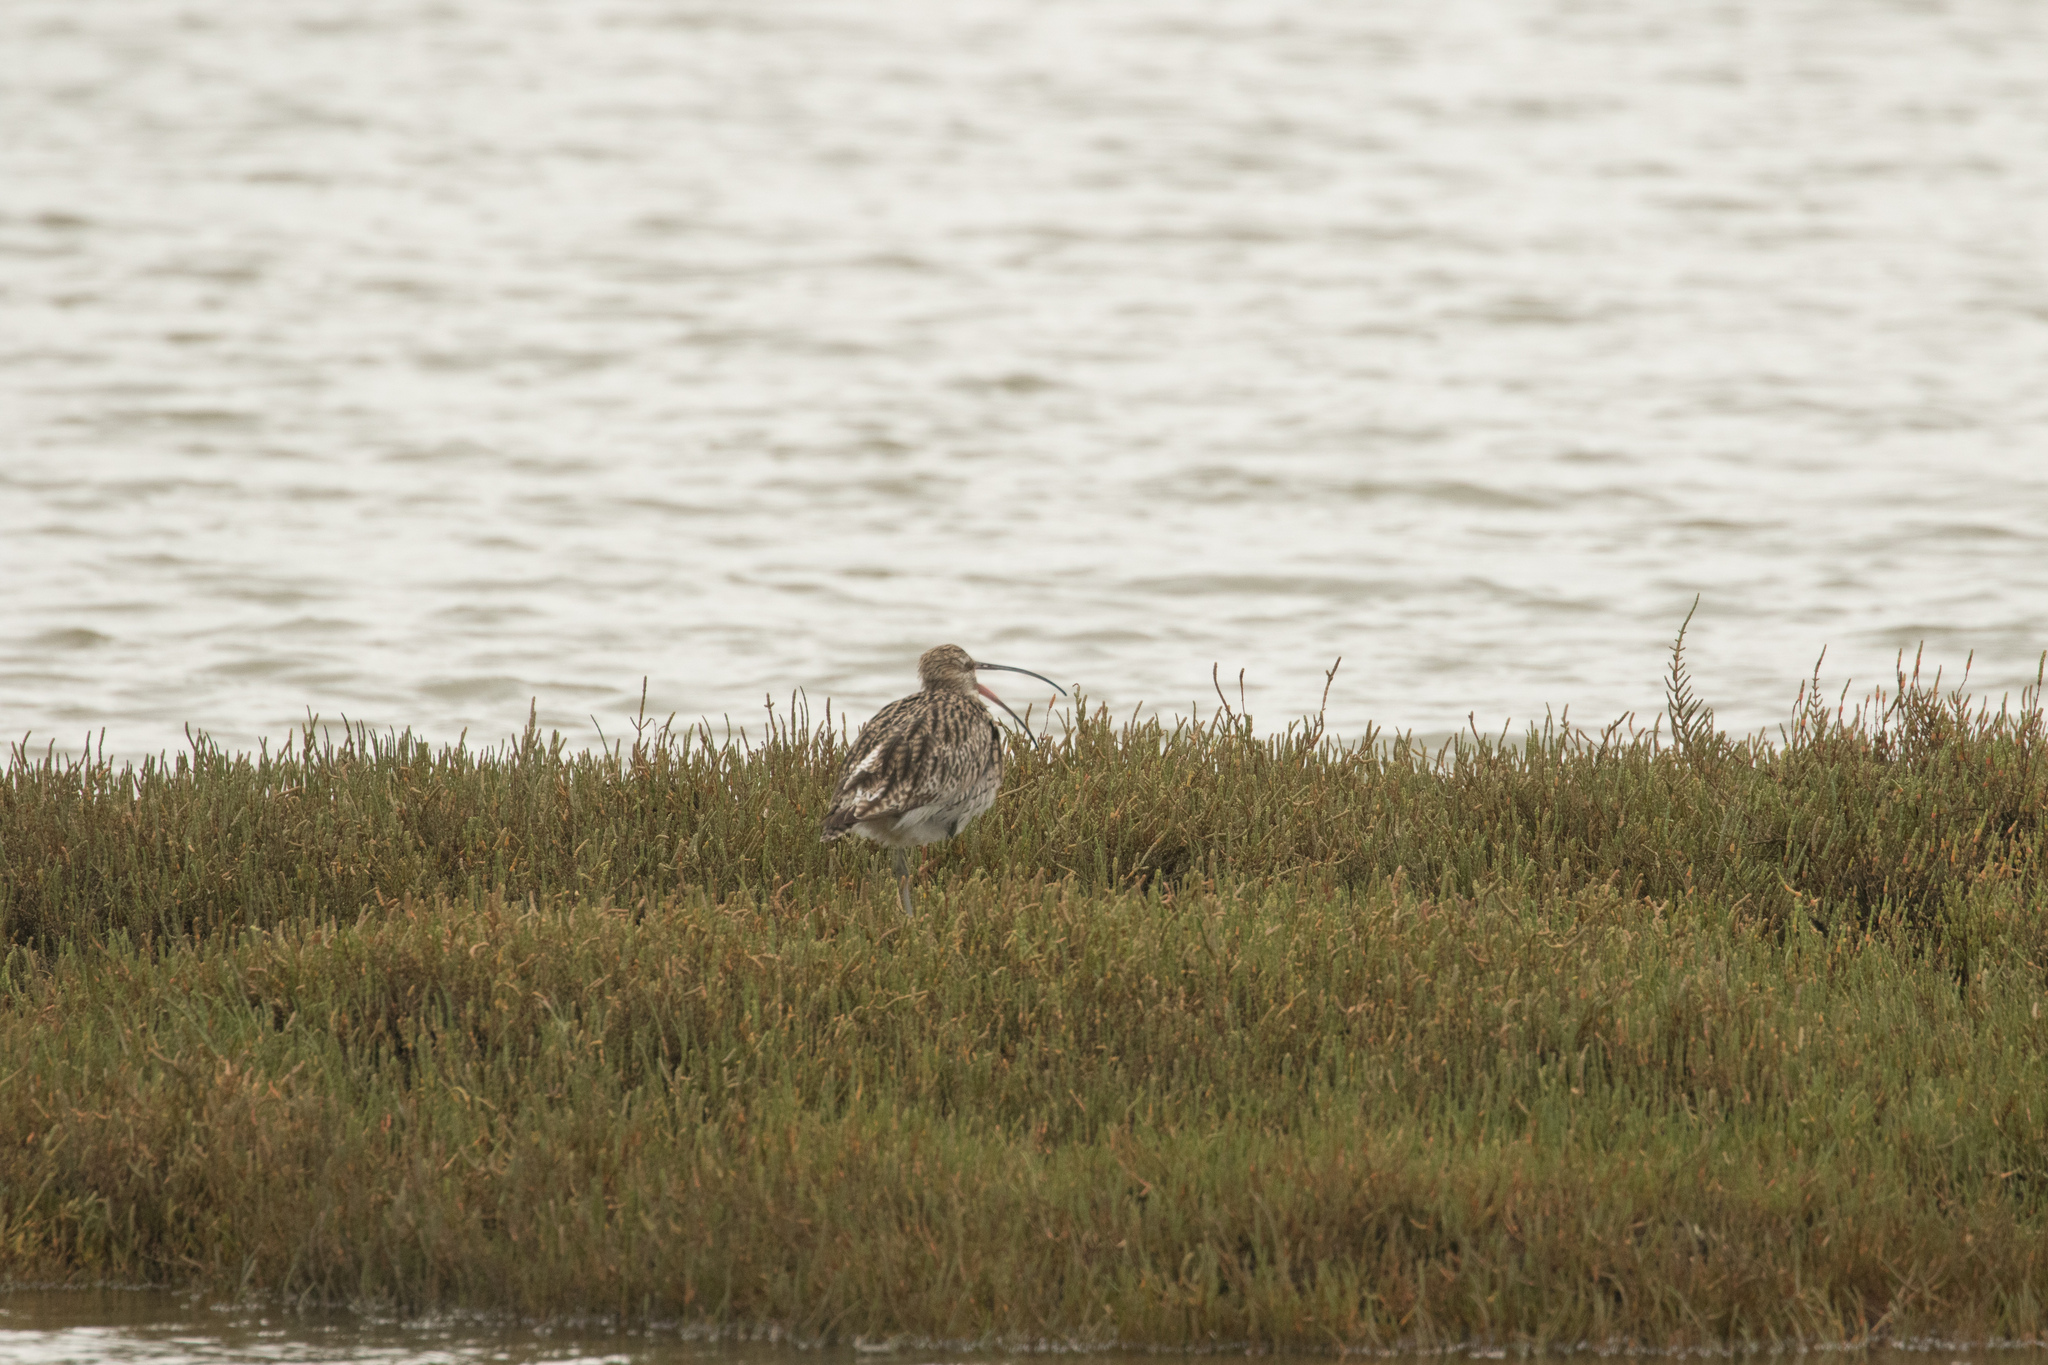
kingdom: Animalia
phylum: Chordata
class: Aves
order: Charadriiformes
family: Scolopacidae
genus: Numenius
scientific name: Numenius arquata
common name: Eurasian curlew
